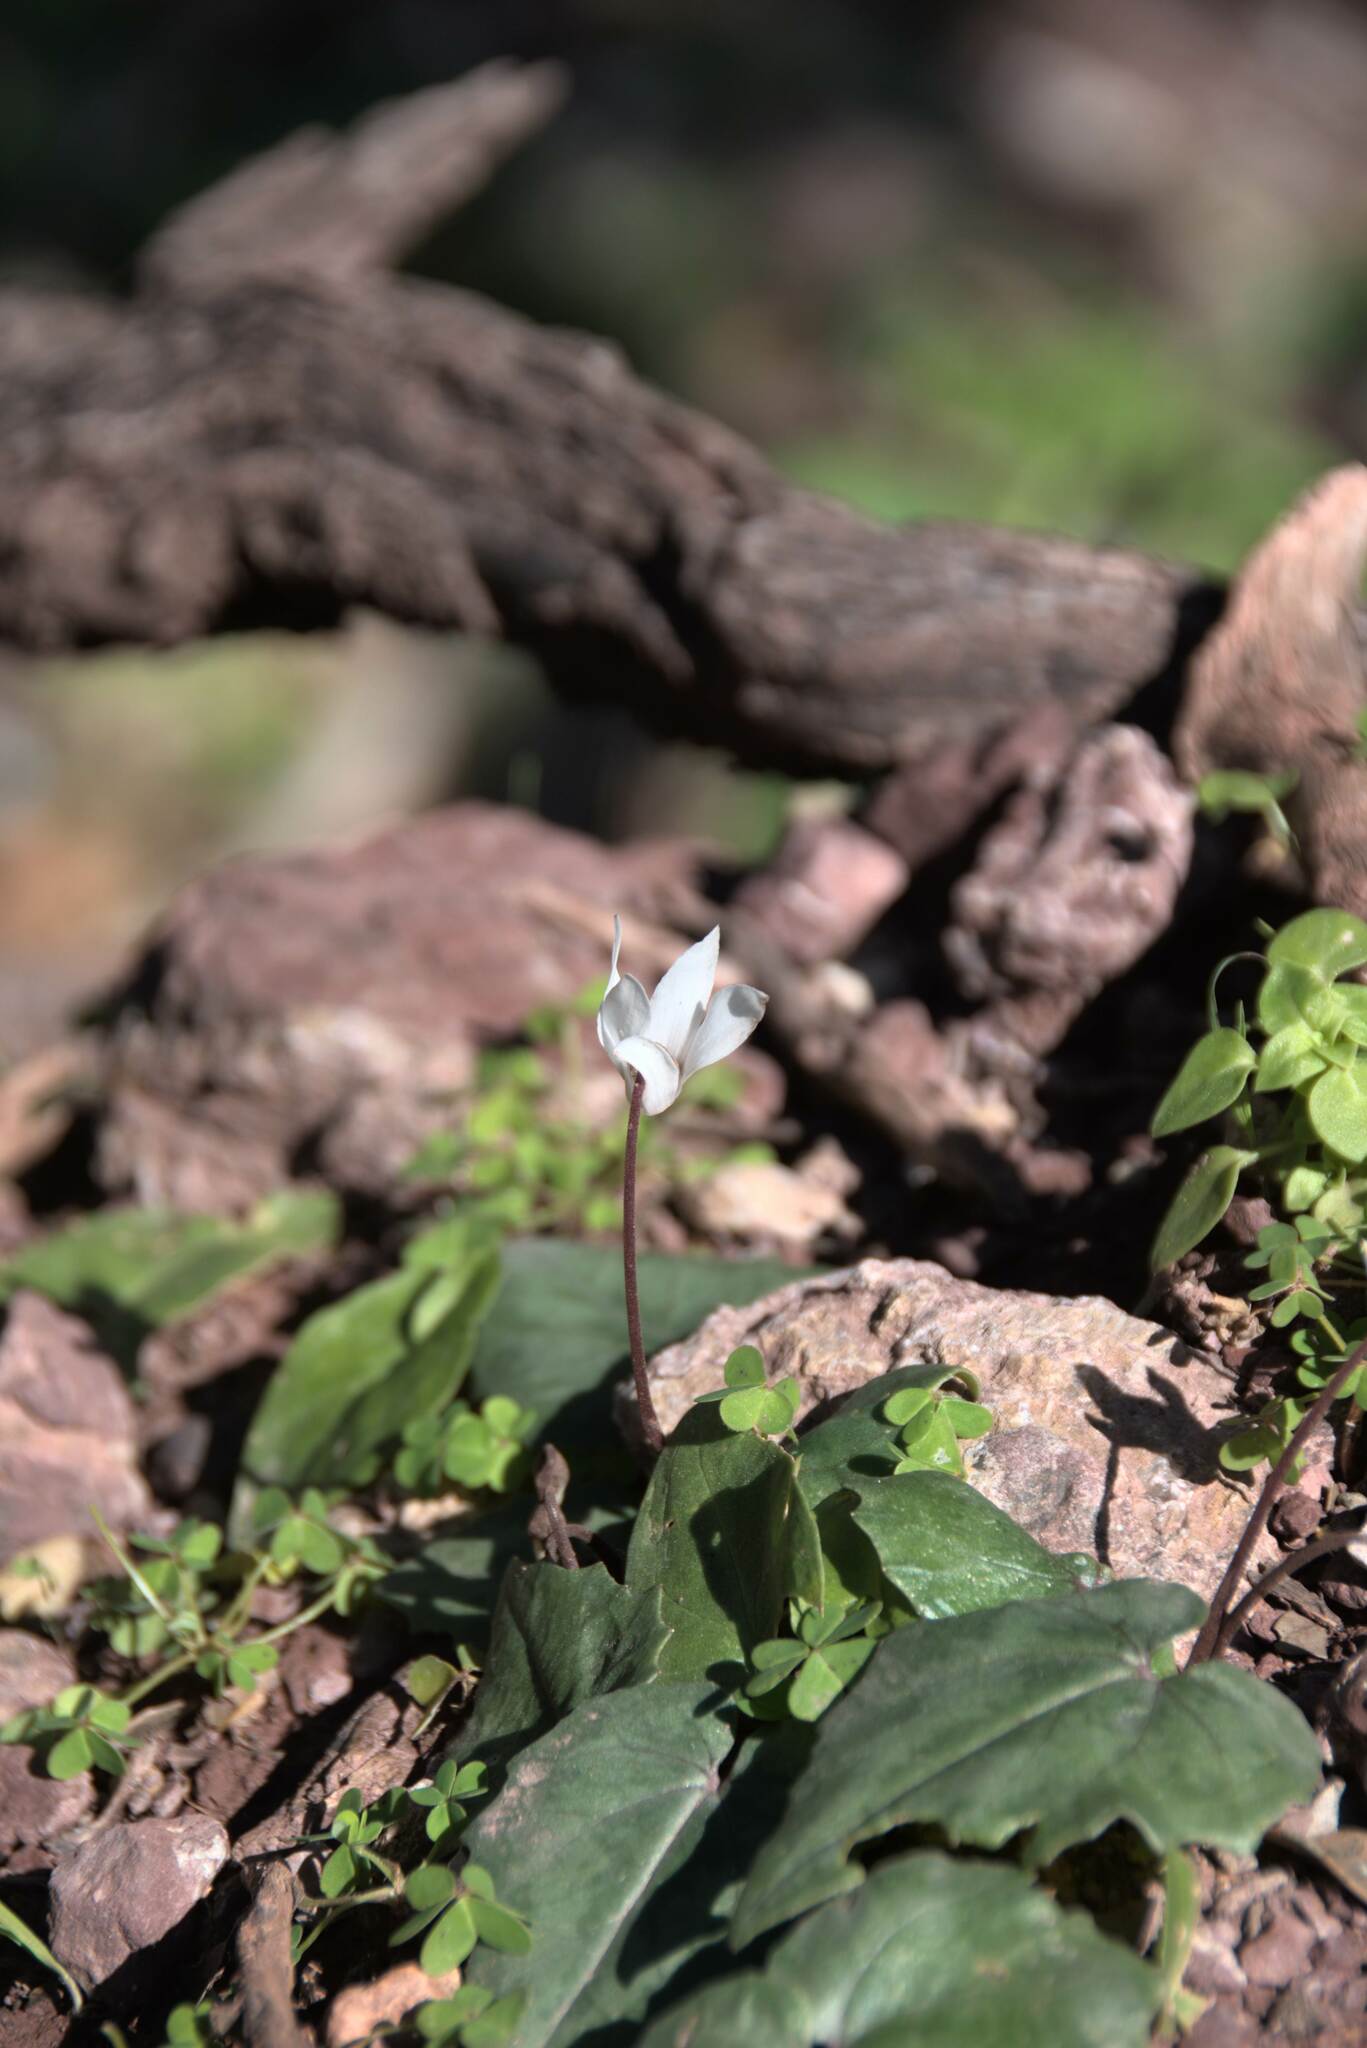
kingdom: Plantae
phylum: Tracheophyta
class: Magnoliopsida
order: Ericales
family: Primulaceae
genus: Cyclamen
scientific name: Cyclamen creticum
